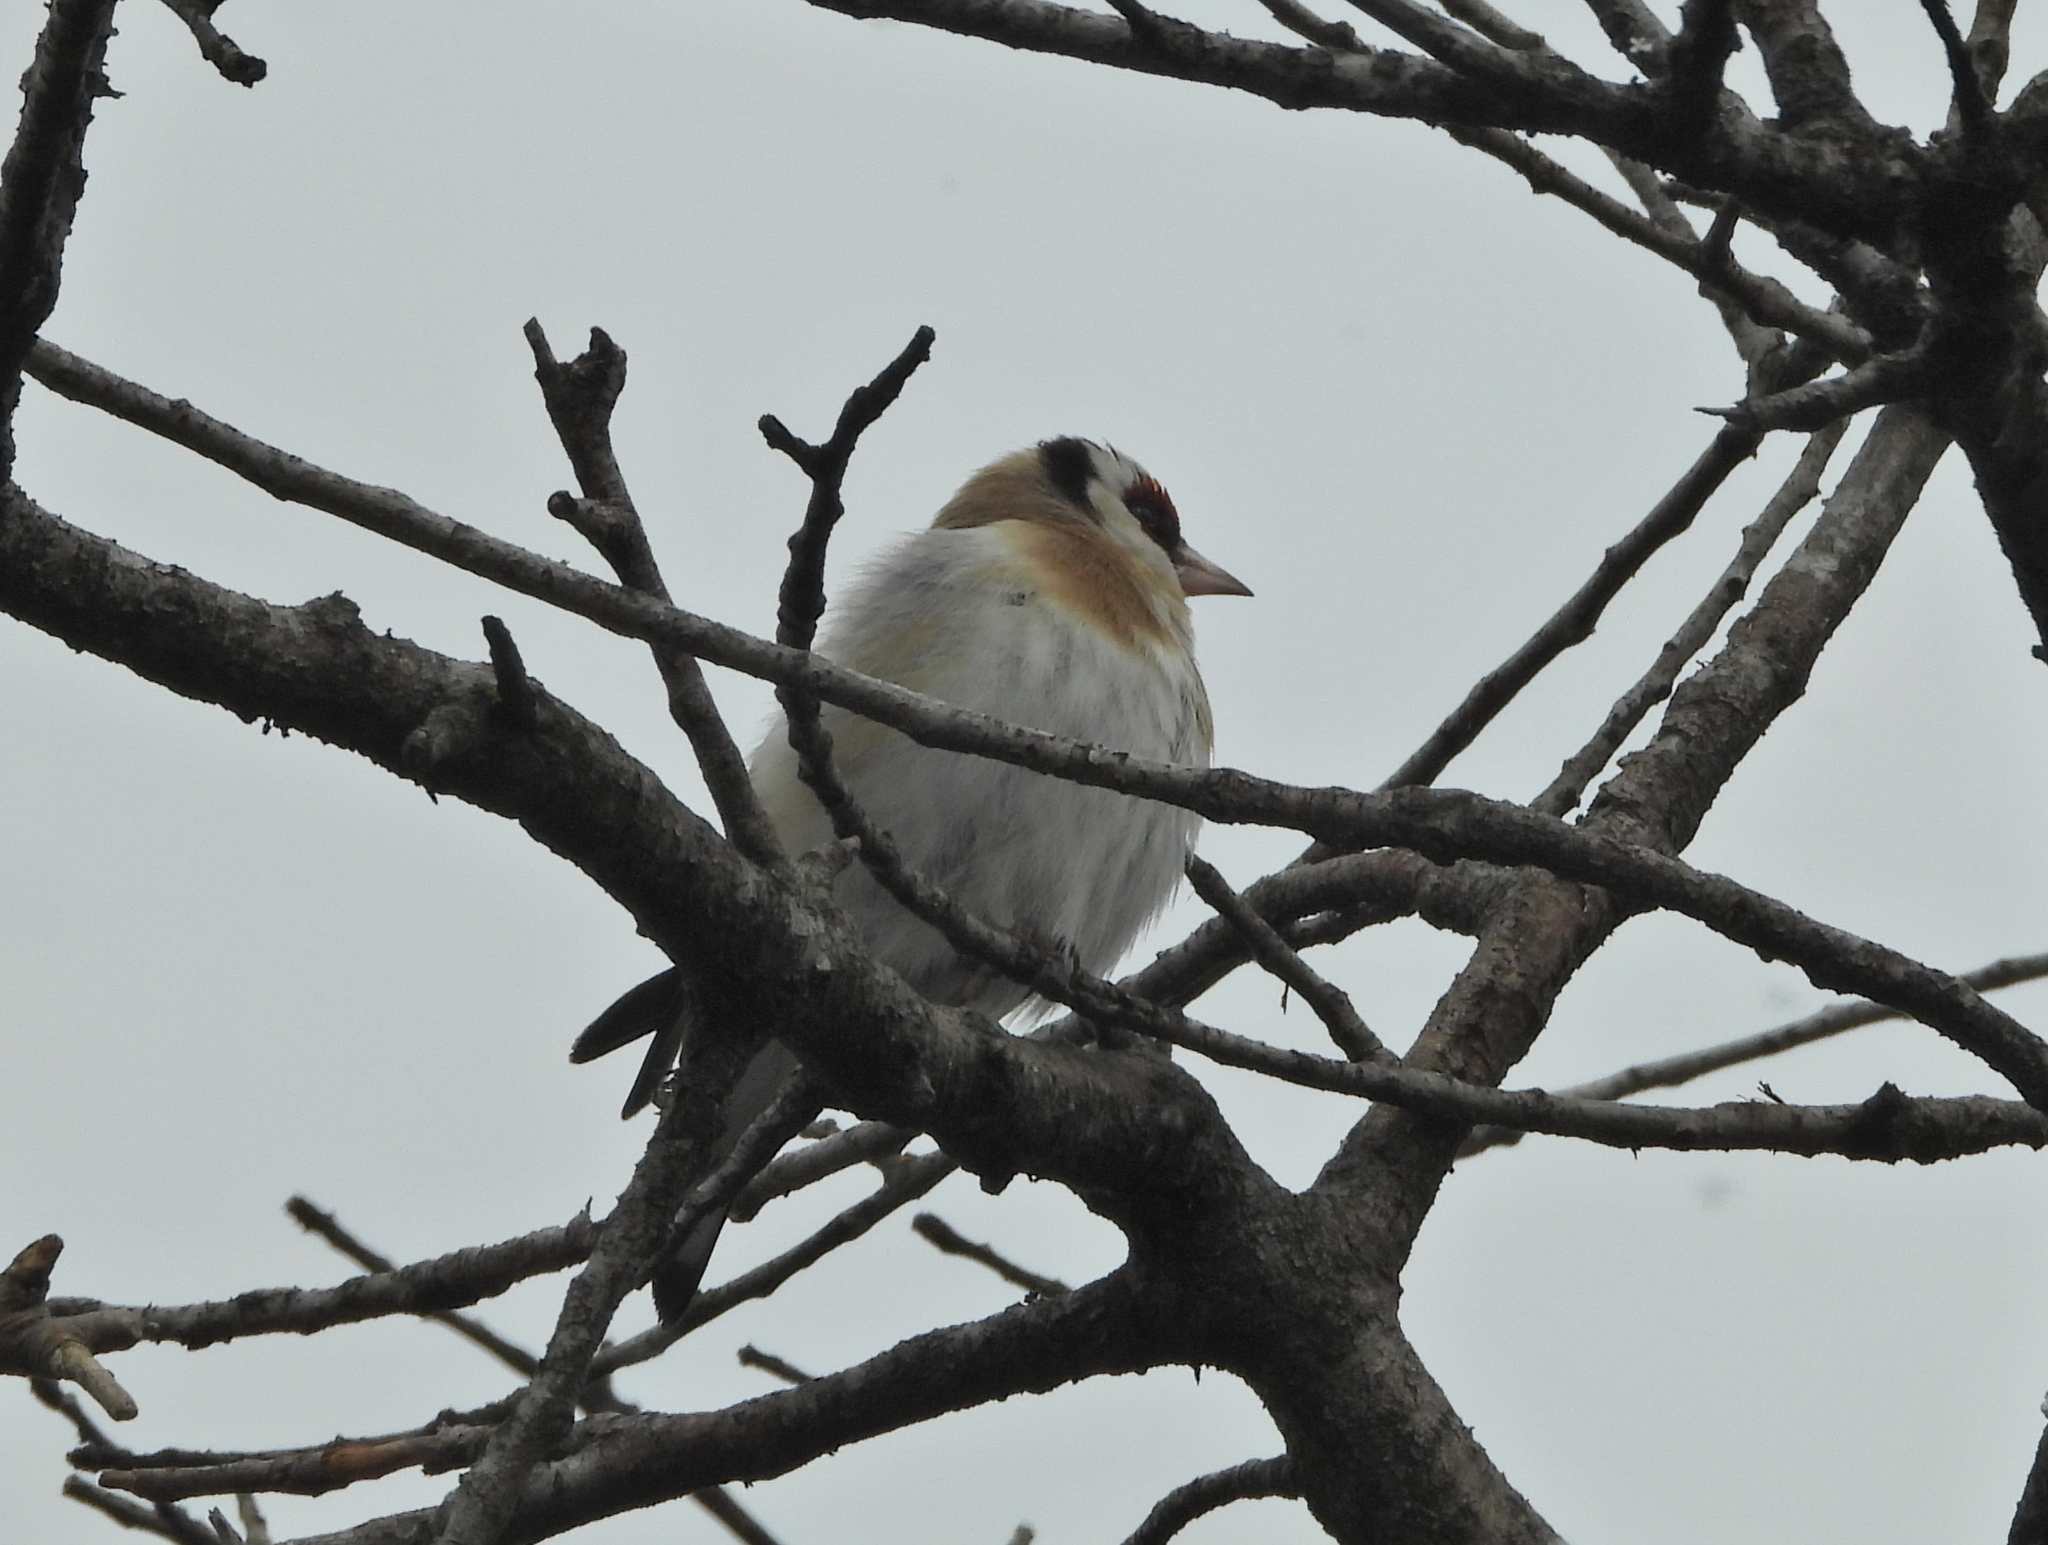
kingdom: Animalia
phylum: Chordata
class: Aves
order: Passeriformes
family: Fringillidae
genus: Carduelis
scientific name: Carduelis carduelis
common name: European goldfinch
